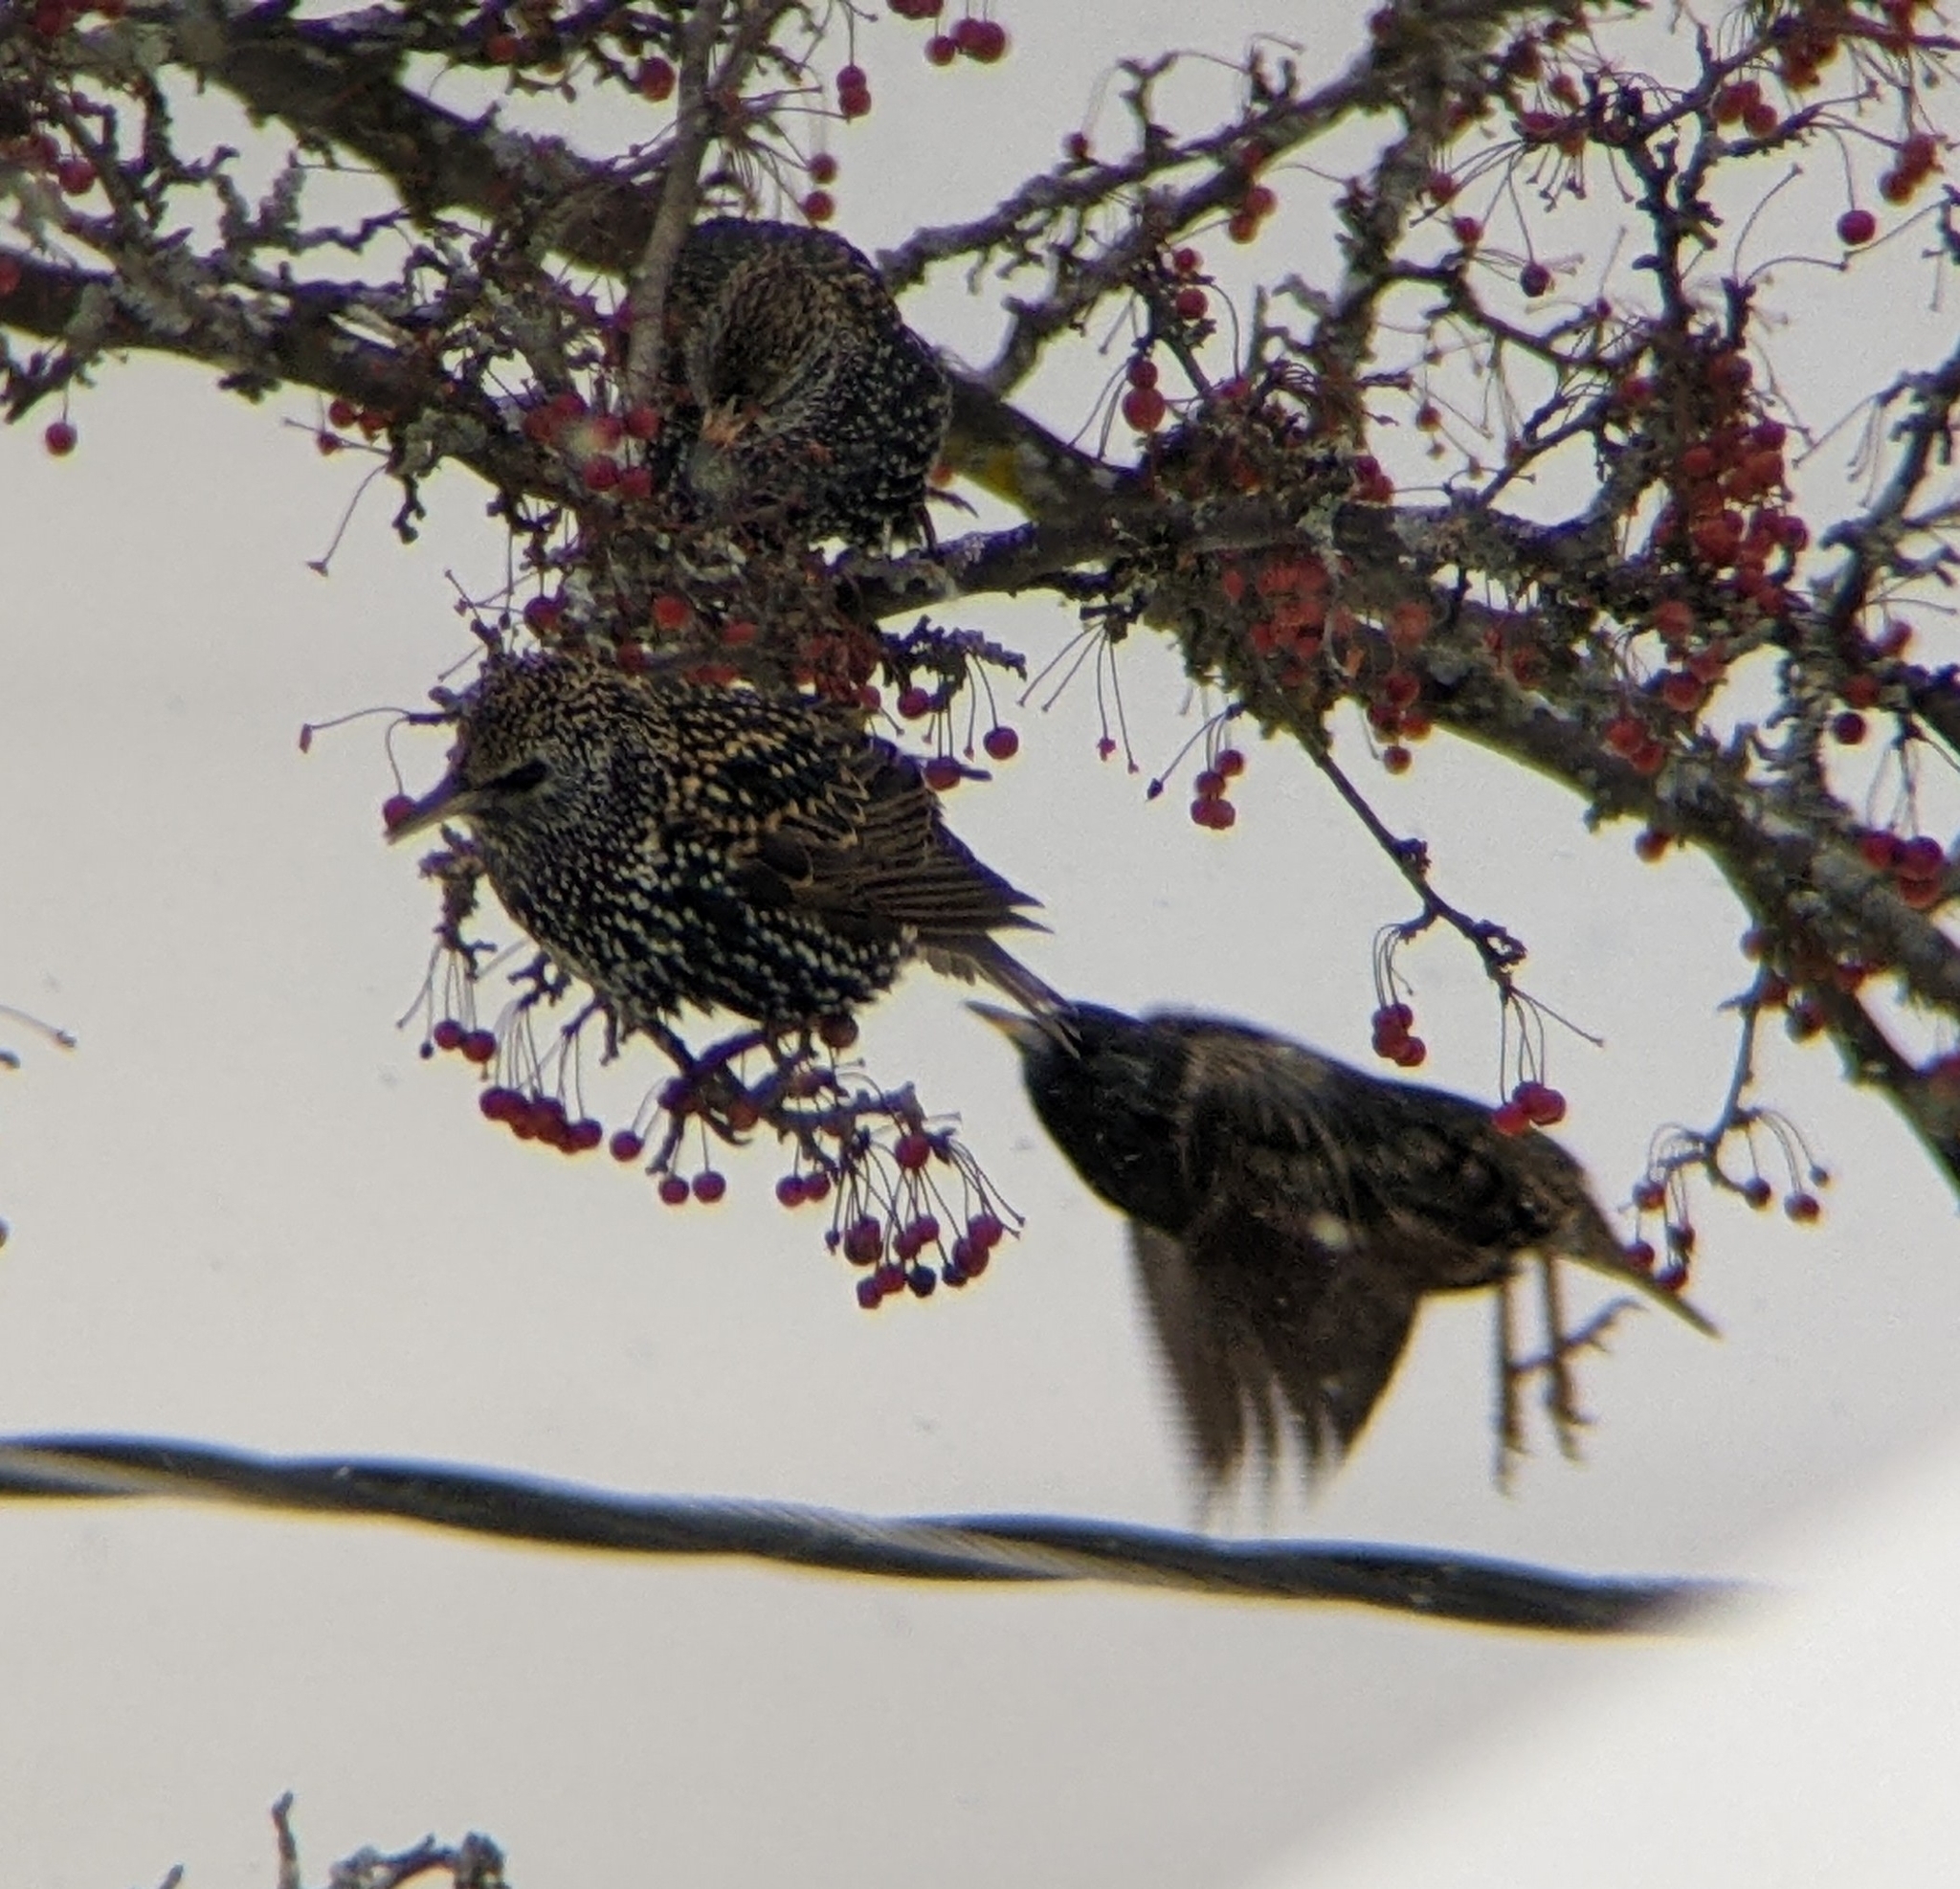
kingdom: Animalia
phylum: Chordata
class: Aves
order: Passeriformes
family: Sturnidae
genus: Sturnus
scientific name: Sturnus vulgaris
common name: Common starling
